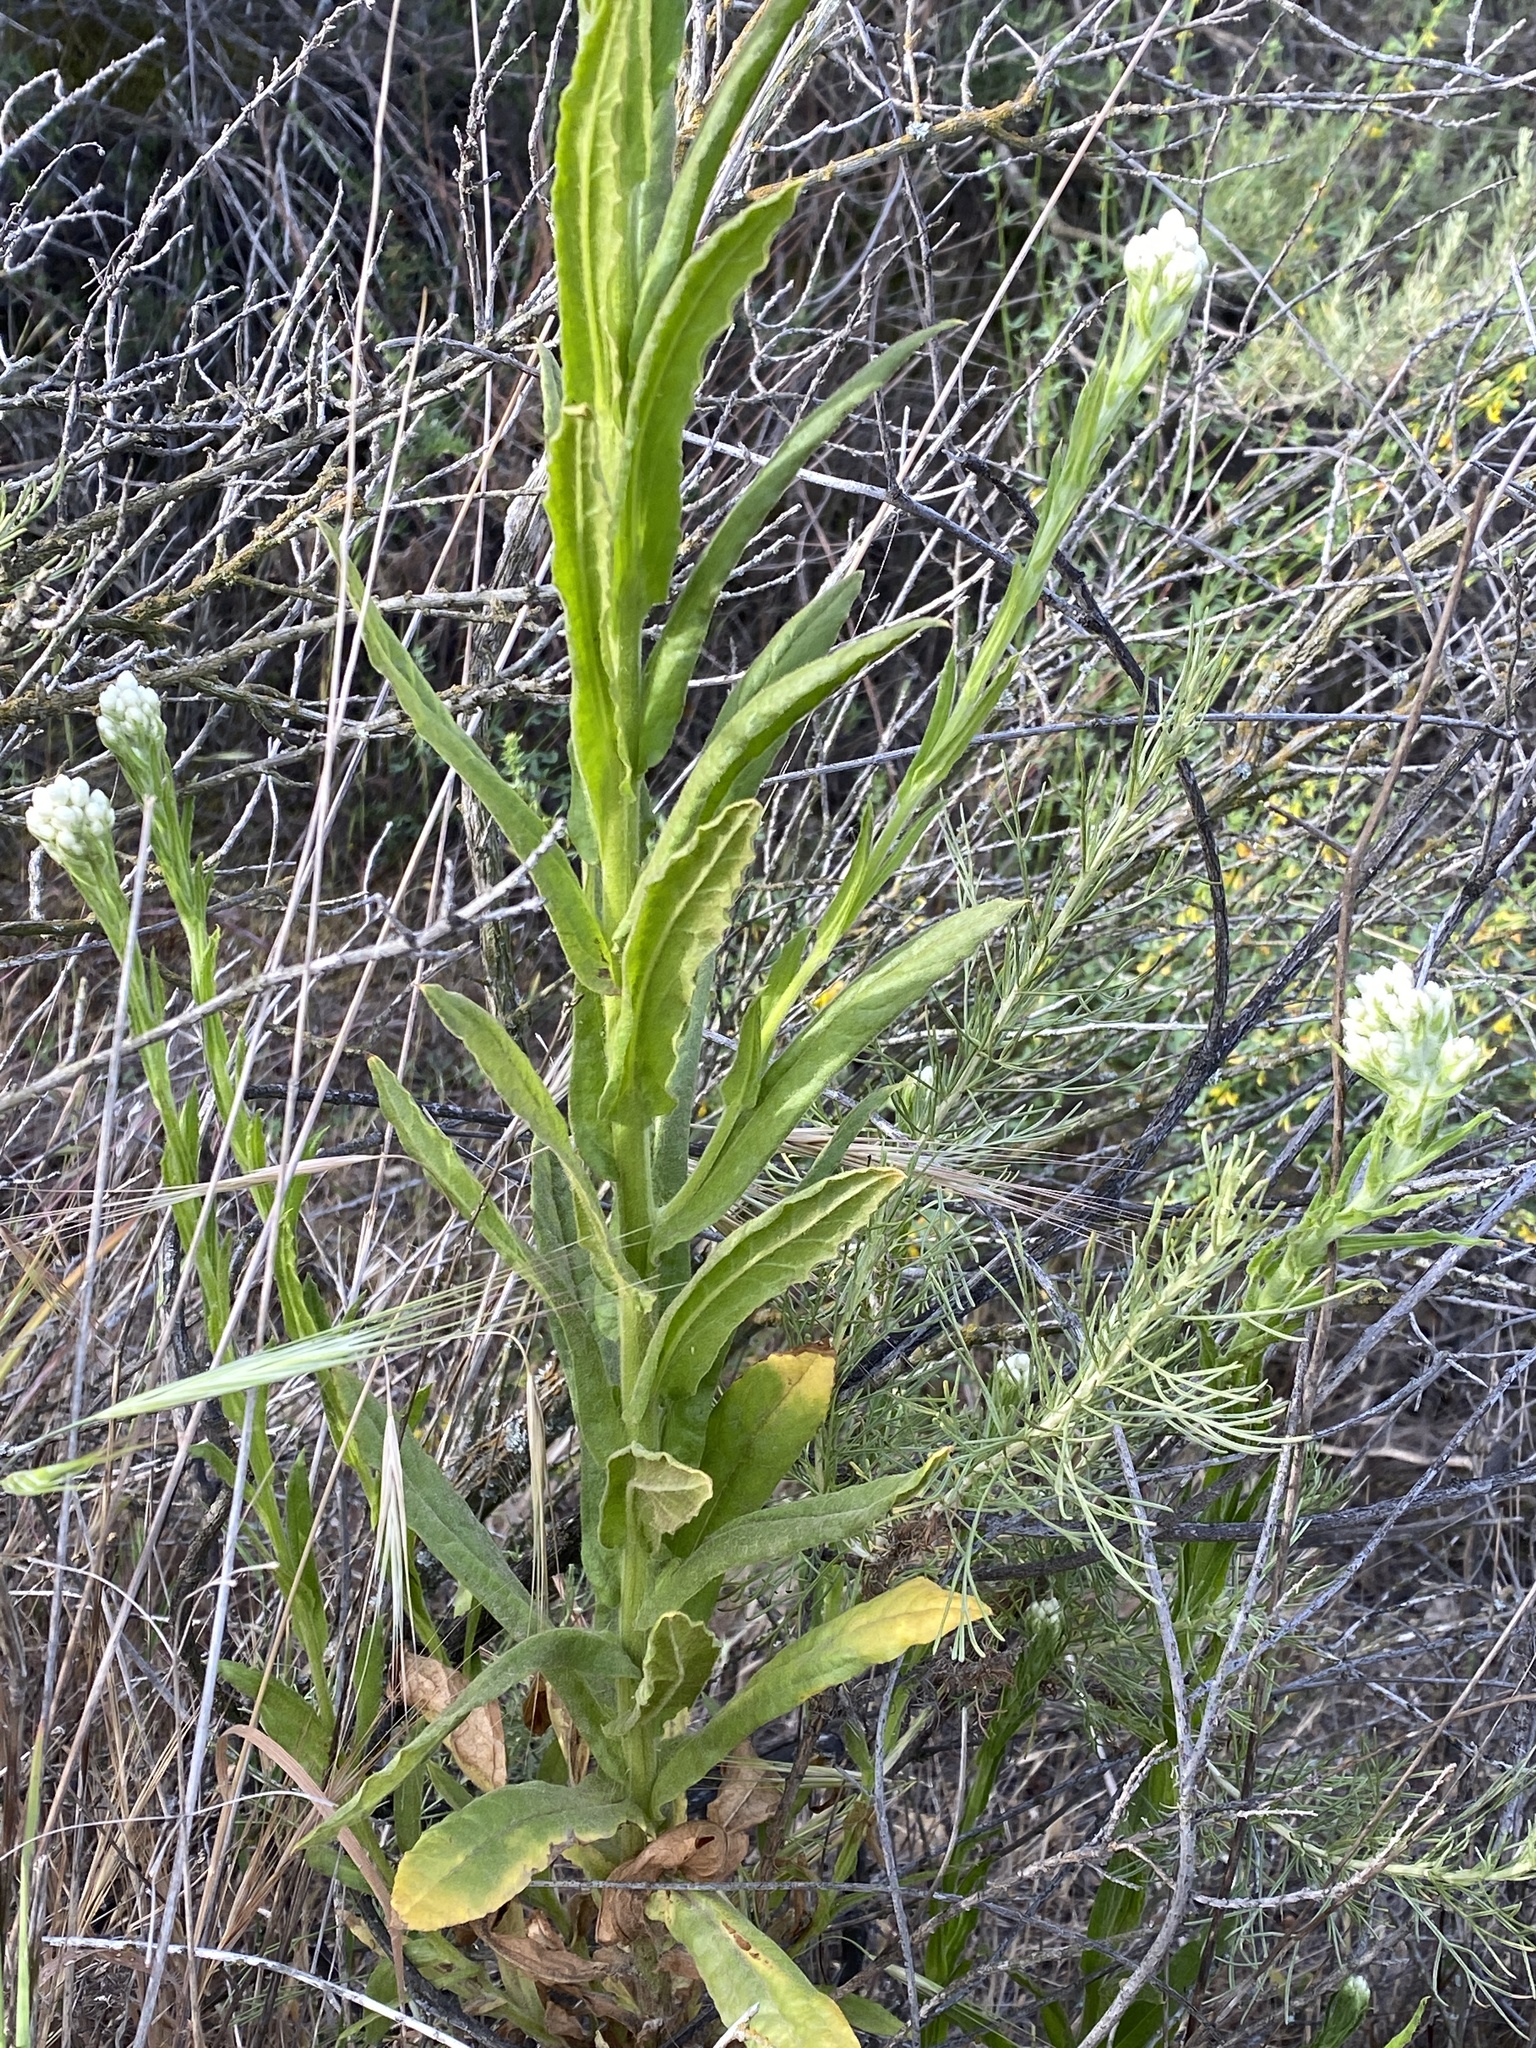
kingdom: Plantae
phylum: Tracheophyta
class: Magnoliopsida
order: Asterales
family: Asteraceae
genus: Pseudognaphalium
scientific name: Pseudognaphalium californicum
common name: California rabbit-tobacco
